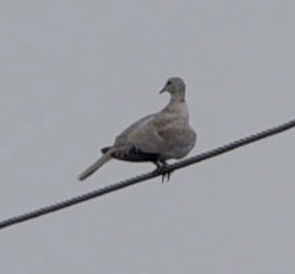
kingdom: Animalia
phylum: Chordata
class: Aves
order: Columbiformes
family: Columbidae
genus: Streptopelia
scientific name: Streptopelia decaocto
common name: Eurasian collared dove
